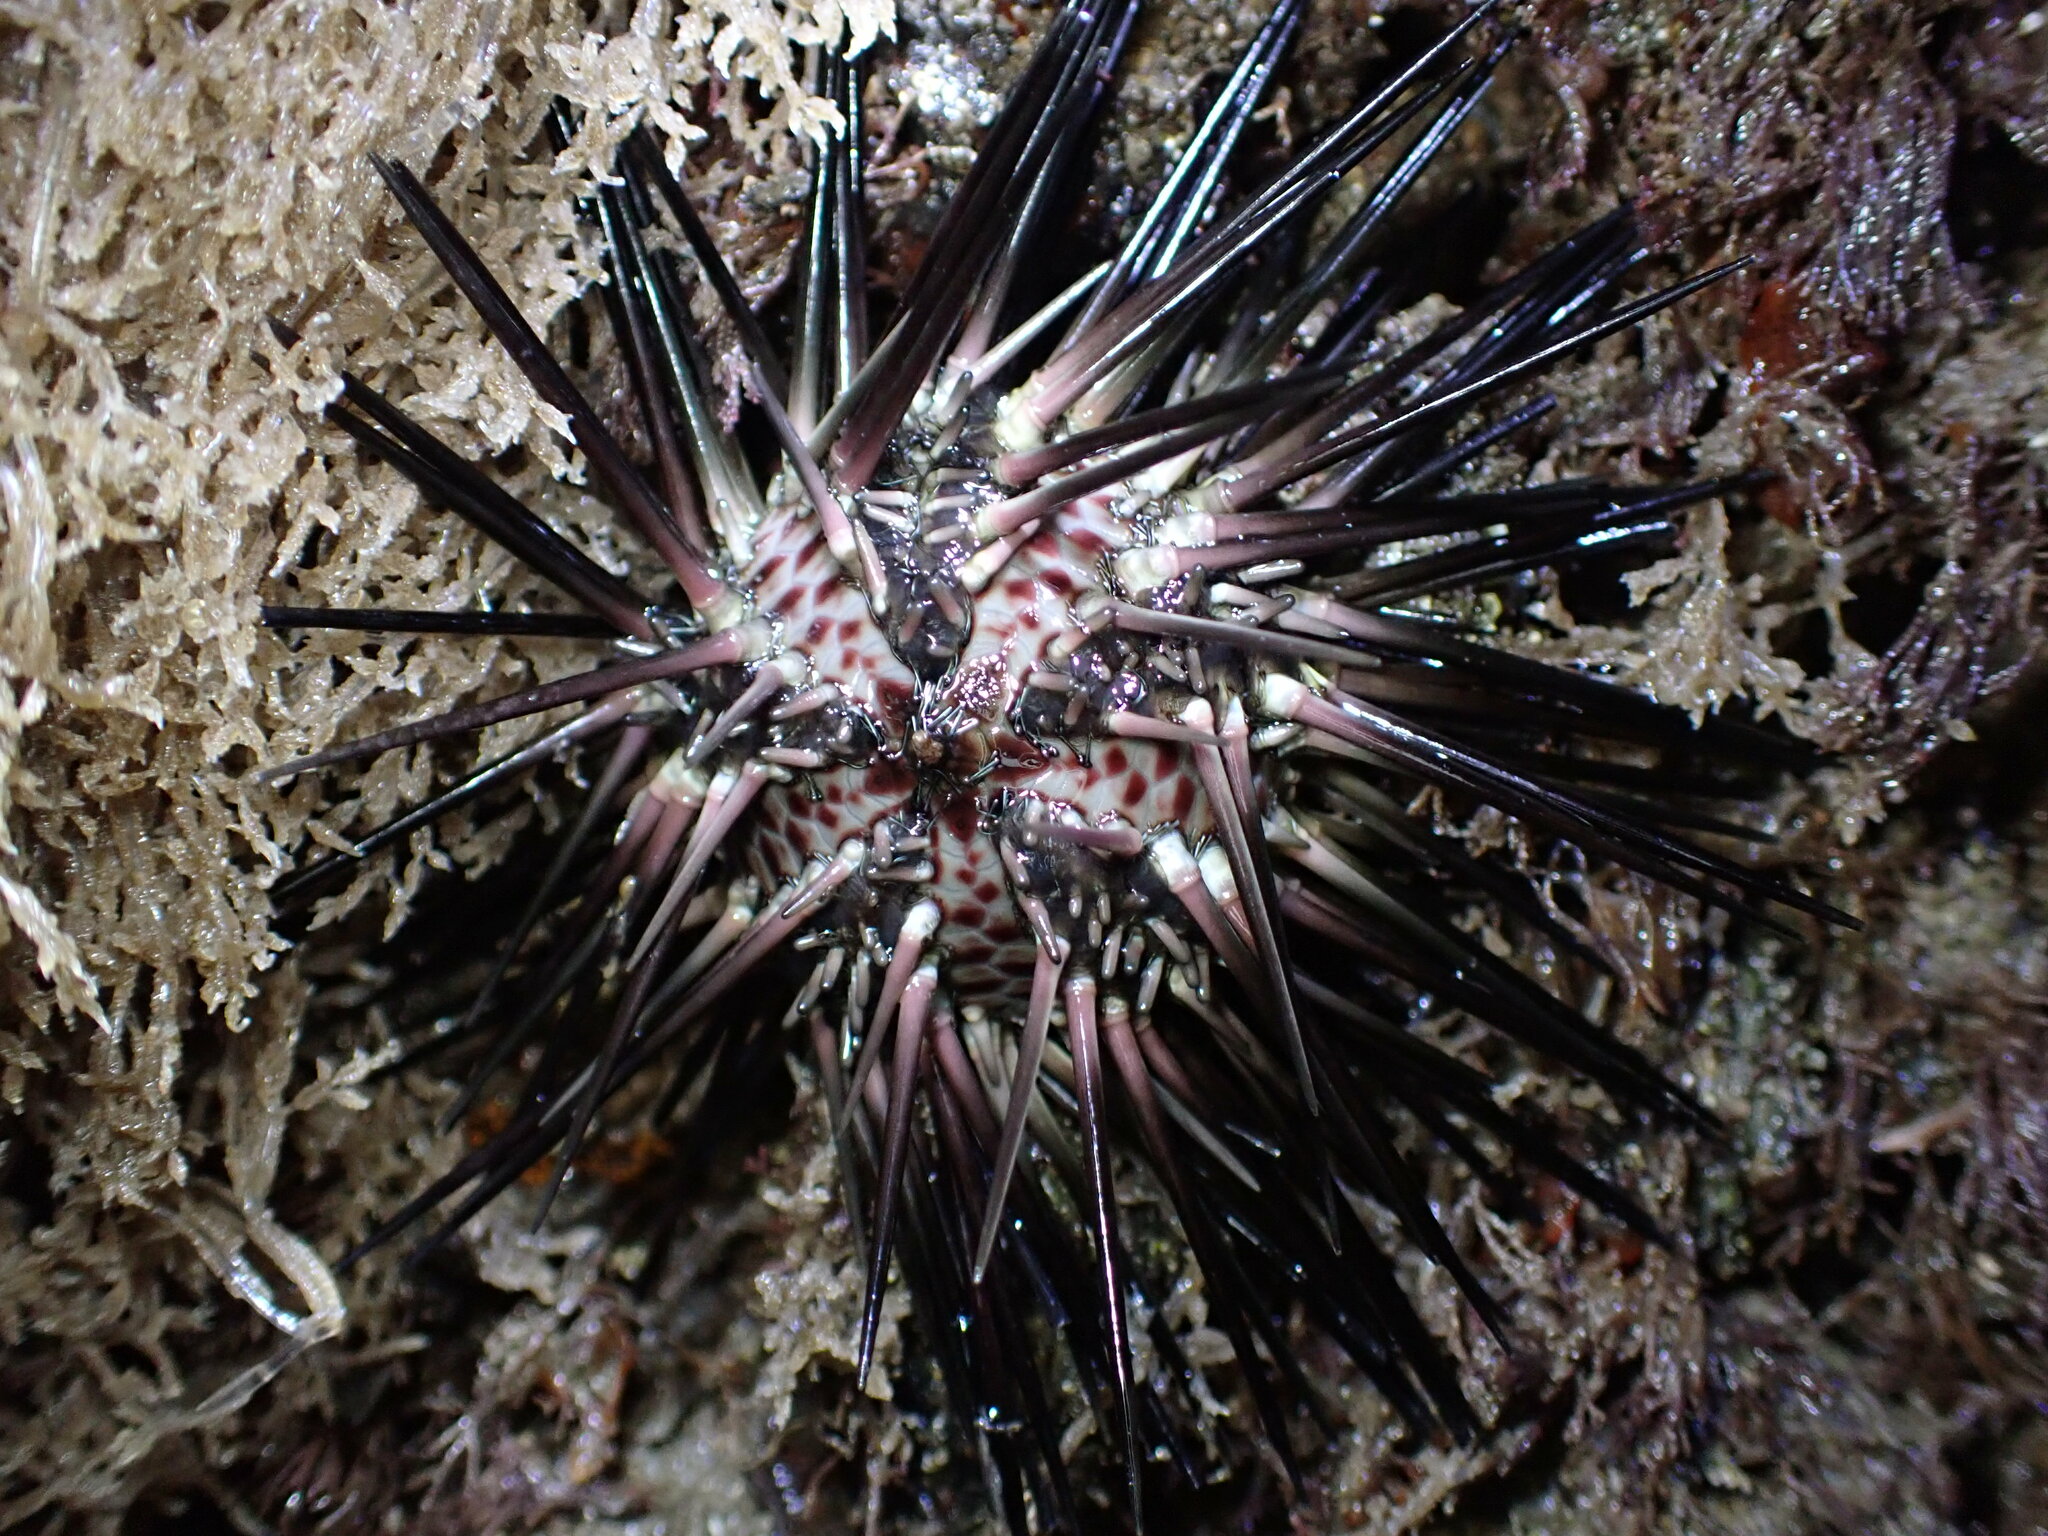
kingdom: Animalia
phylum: Echinodermata
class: Echinoidea
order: Arbacioida
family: Arbaciidae
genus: Arbacia
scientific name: Arbacia stellata
